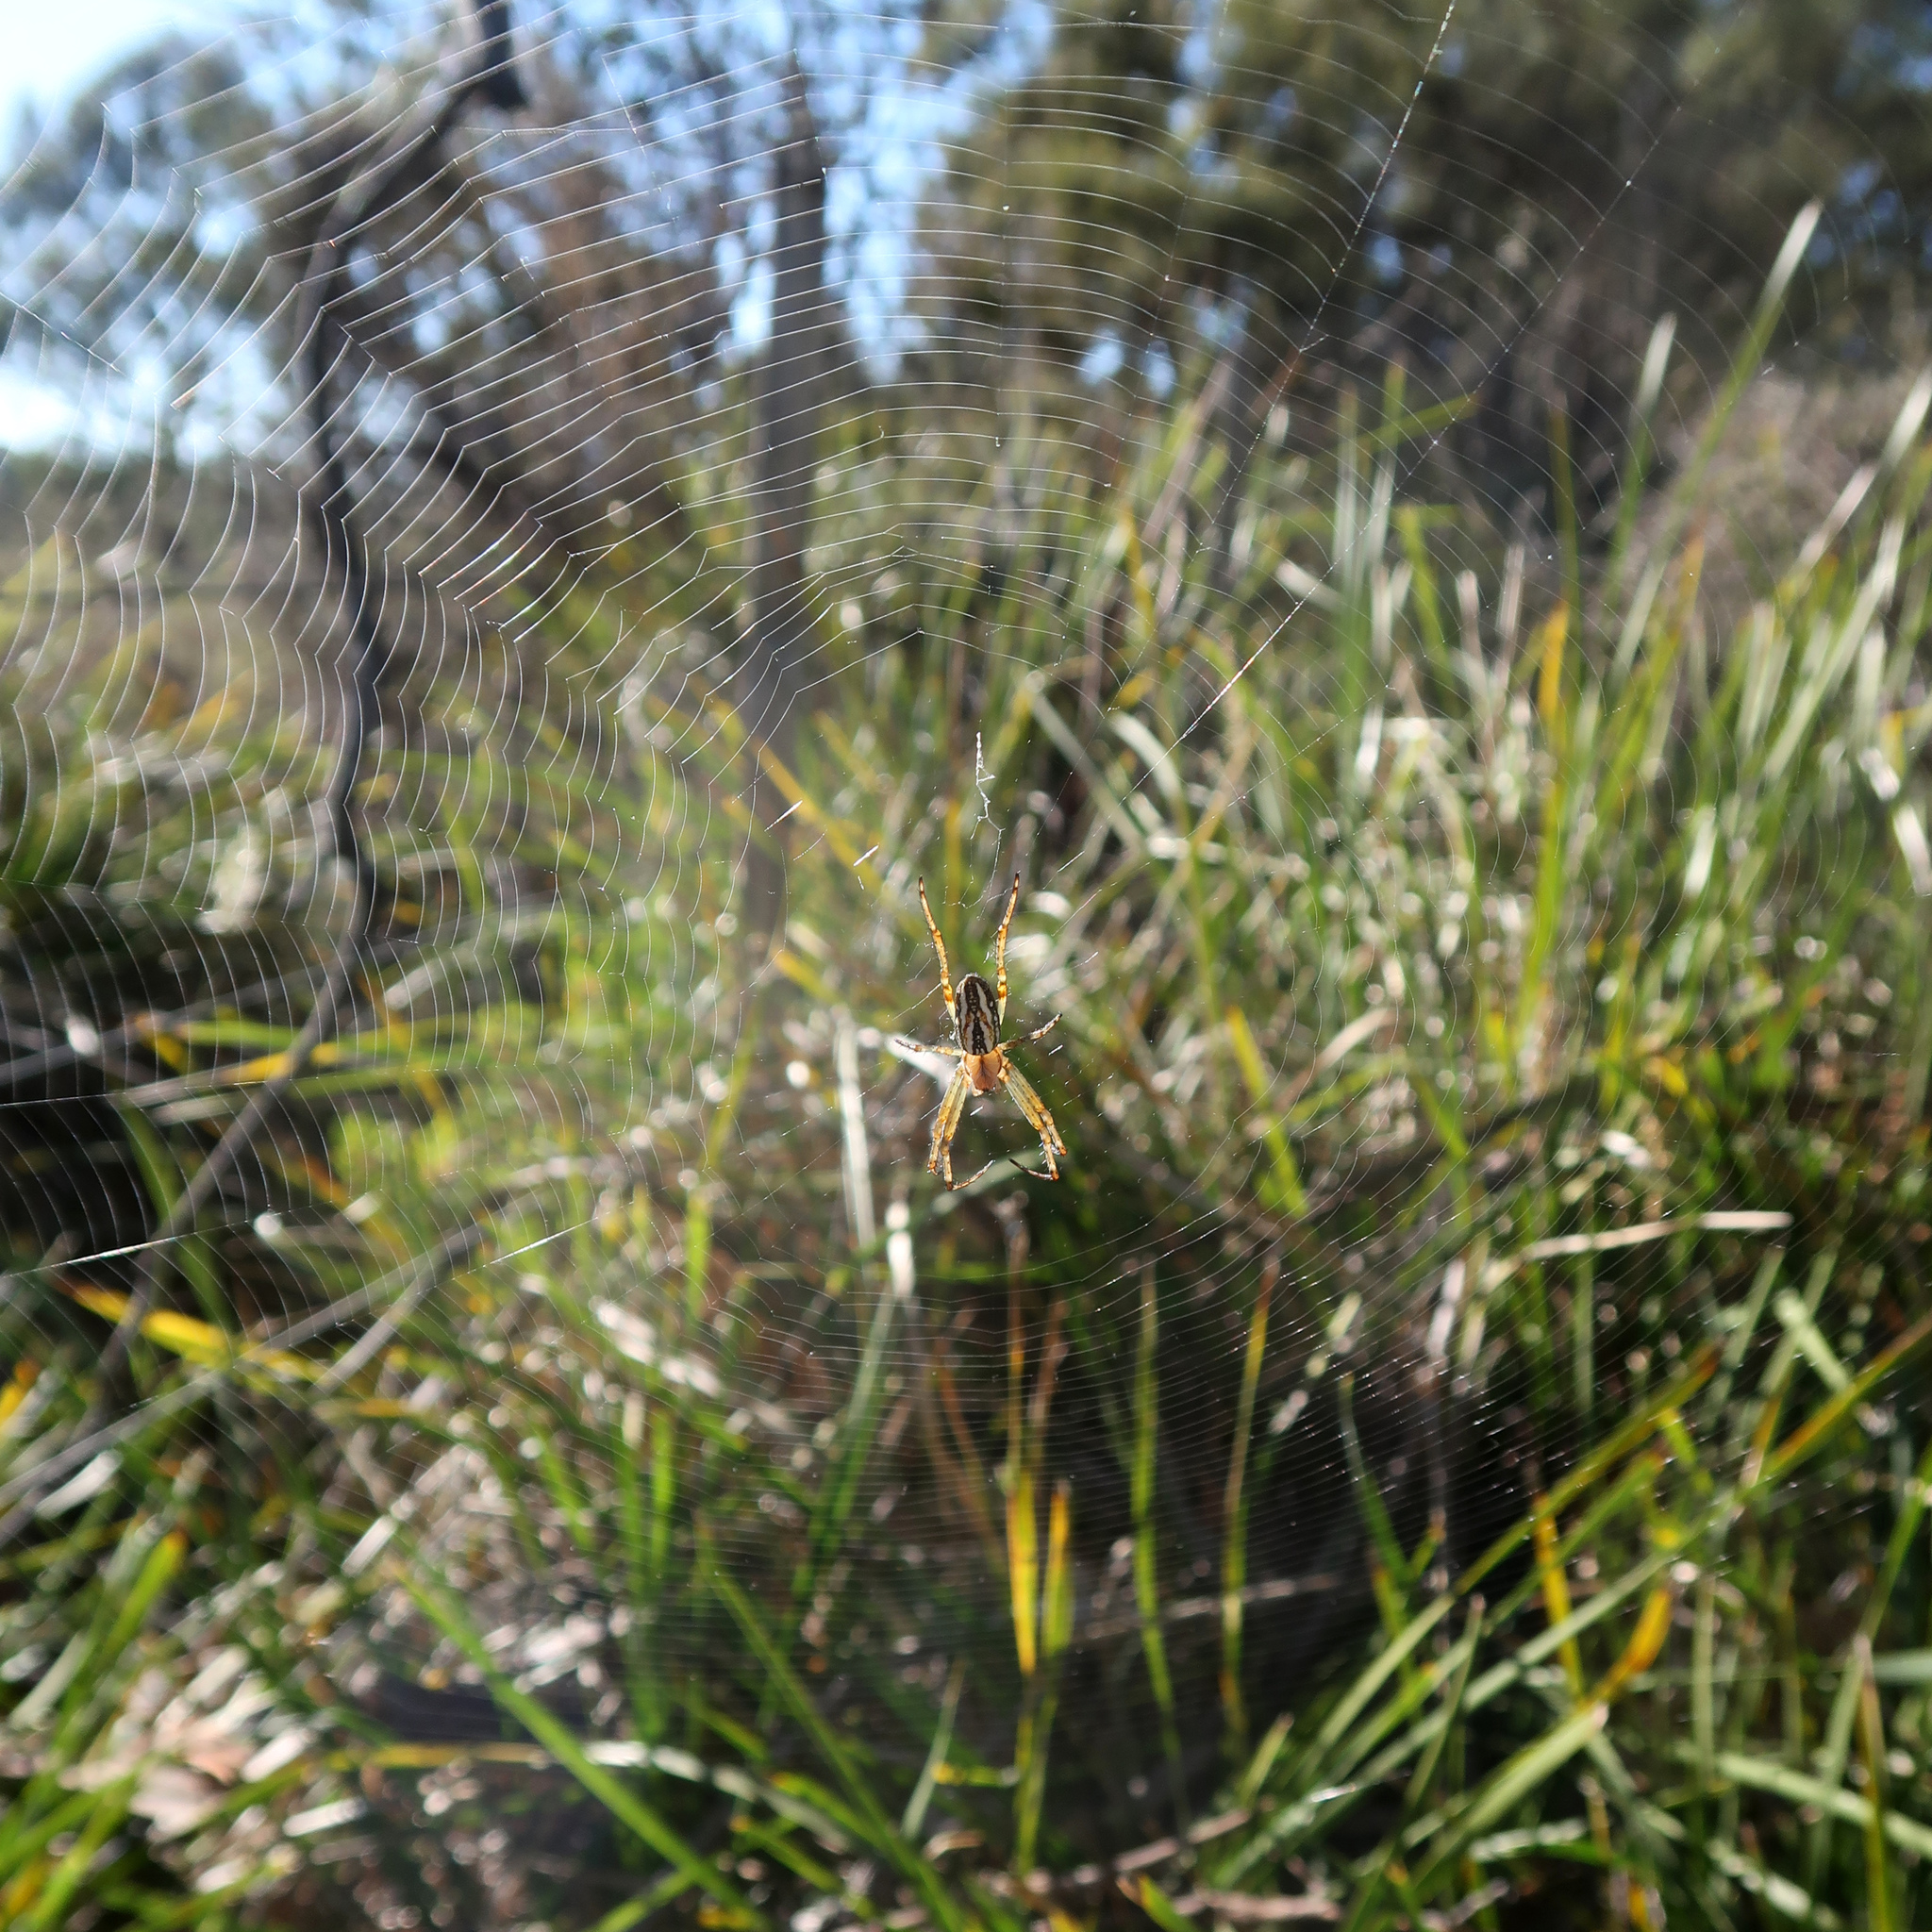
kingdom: Animalia
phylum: Arthropoda
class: Arachnida
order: Araneae
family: Araneidae
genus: Plebs
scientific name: Plebs bradleyi
